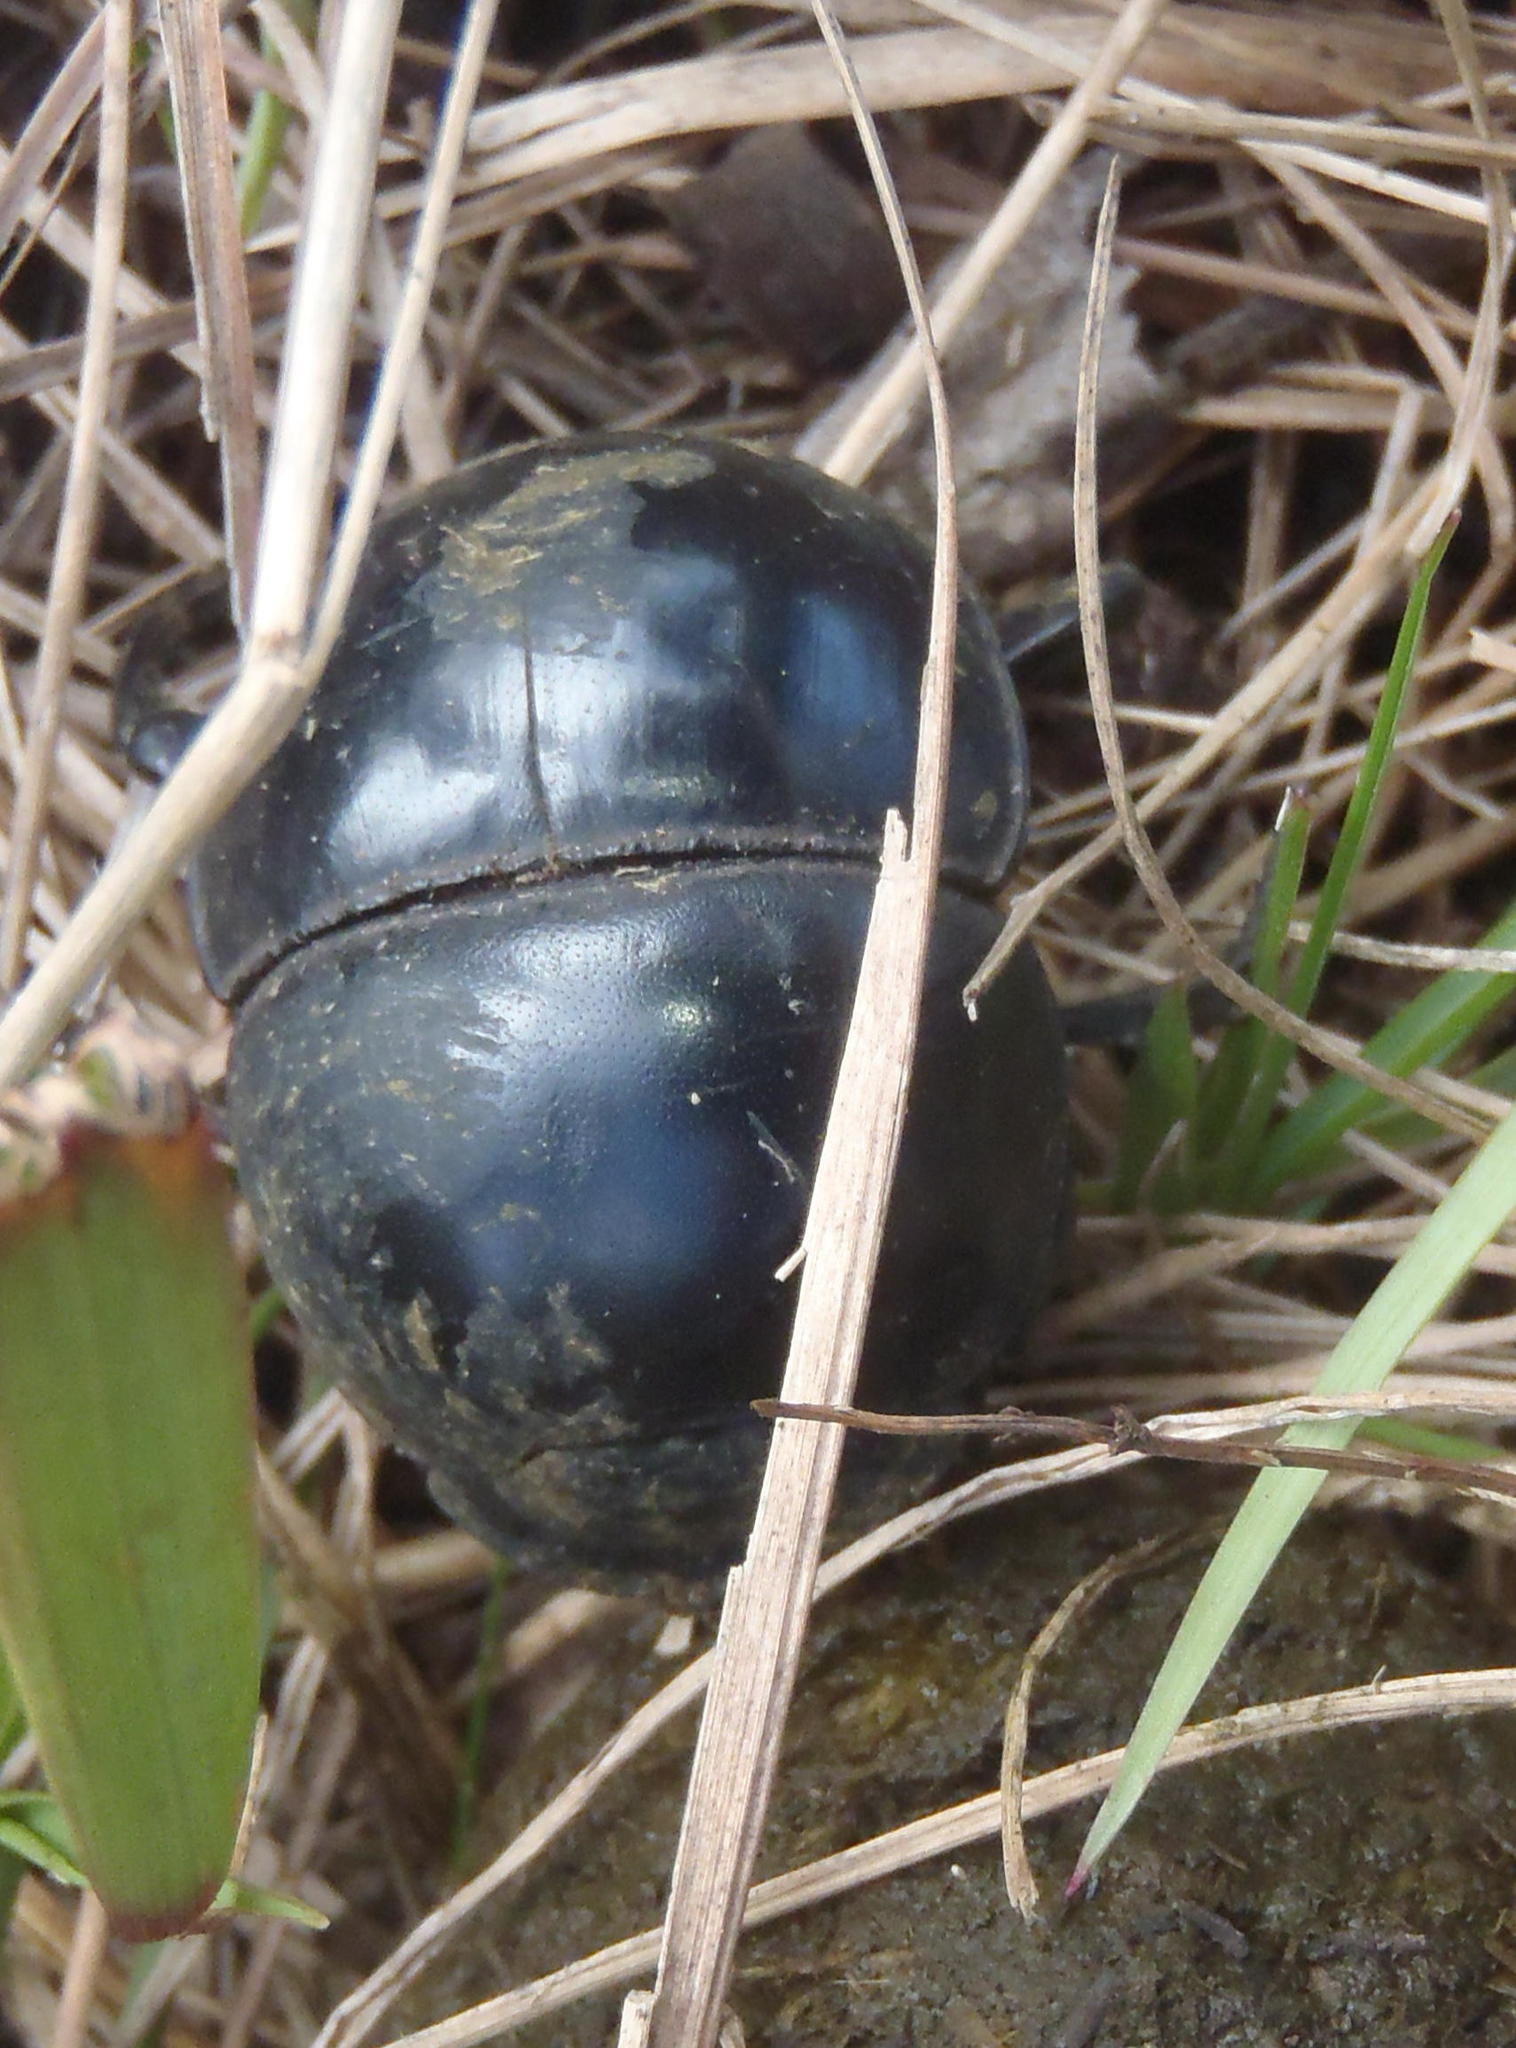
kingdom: Animalia
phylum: Arthropoda
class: Insecta
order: Coleoptera
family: Scarabaeidae
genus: Circellium
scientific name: Circellium bacchus
